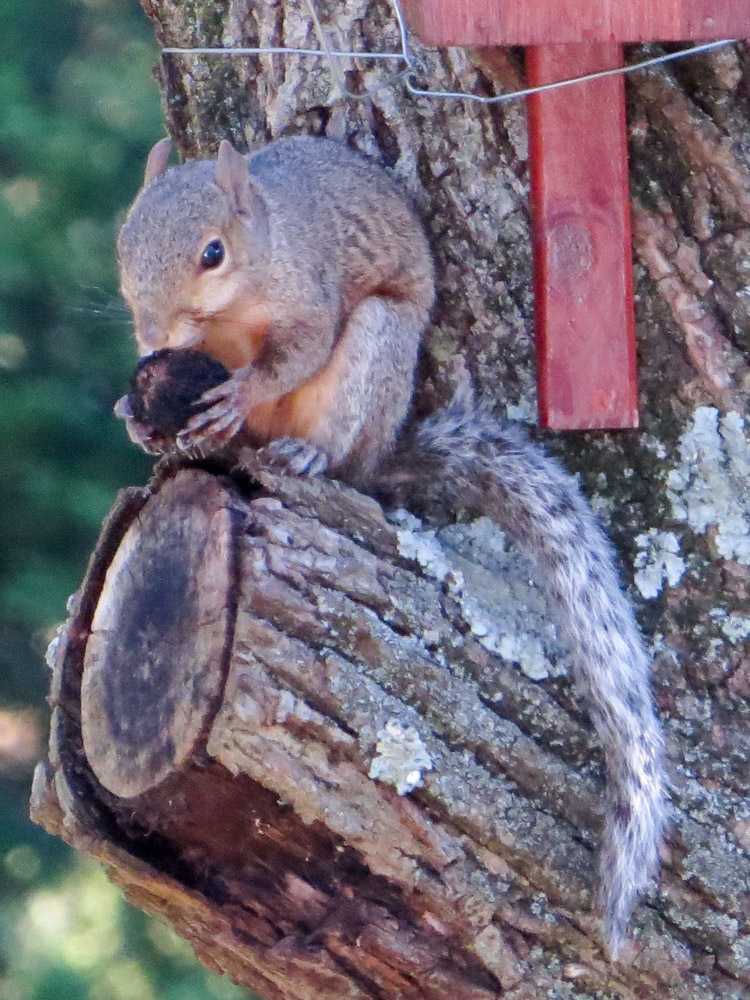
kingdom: Animalia
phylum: Chordata
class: Mammalia
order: Rodentia
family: Sciuridae
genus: Sciurus
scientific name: Sciurus carolinensis
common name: Eastern gray squirrel
